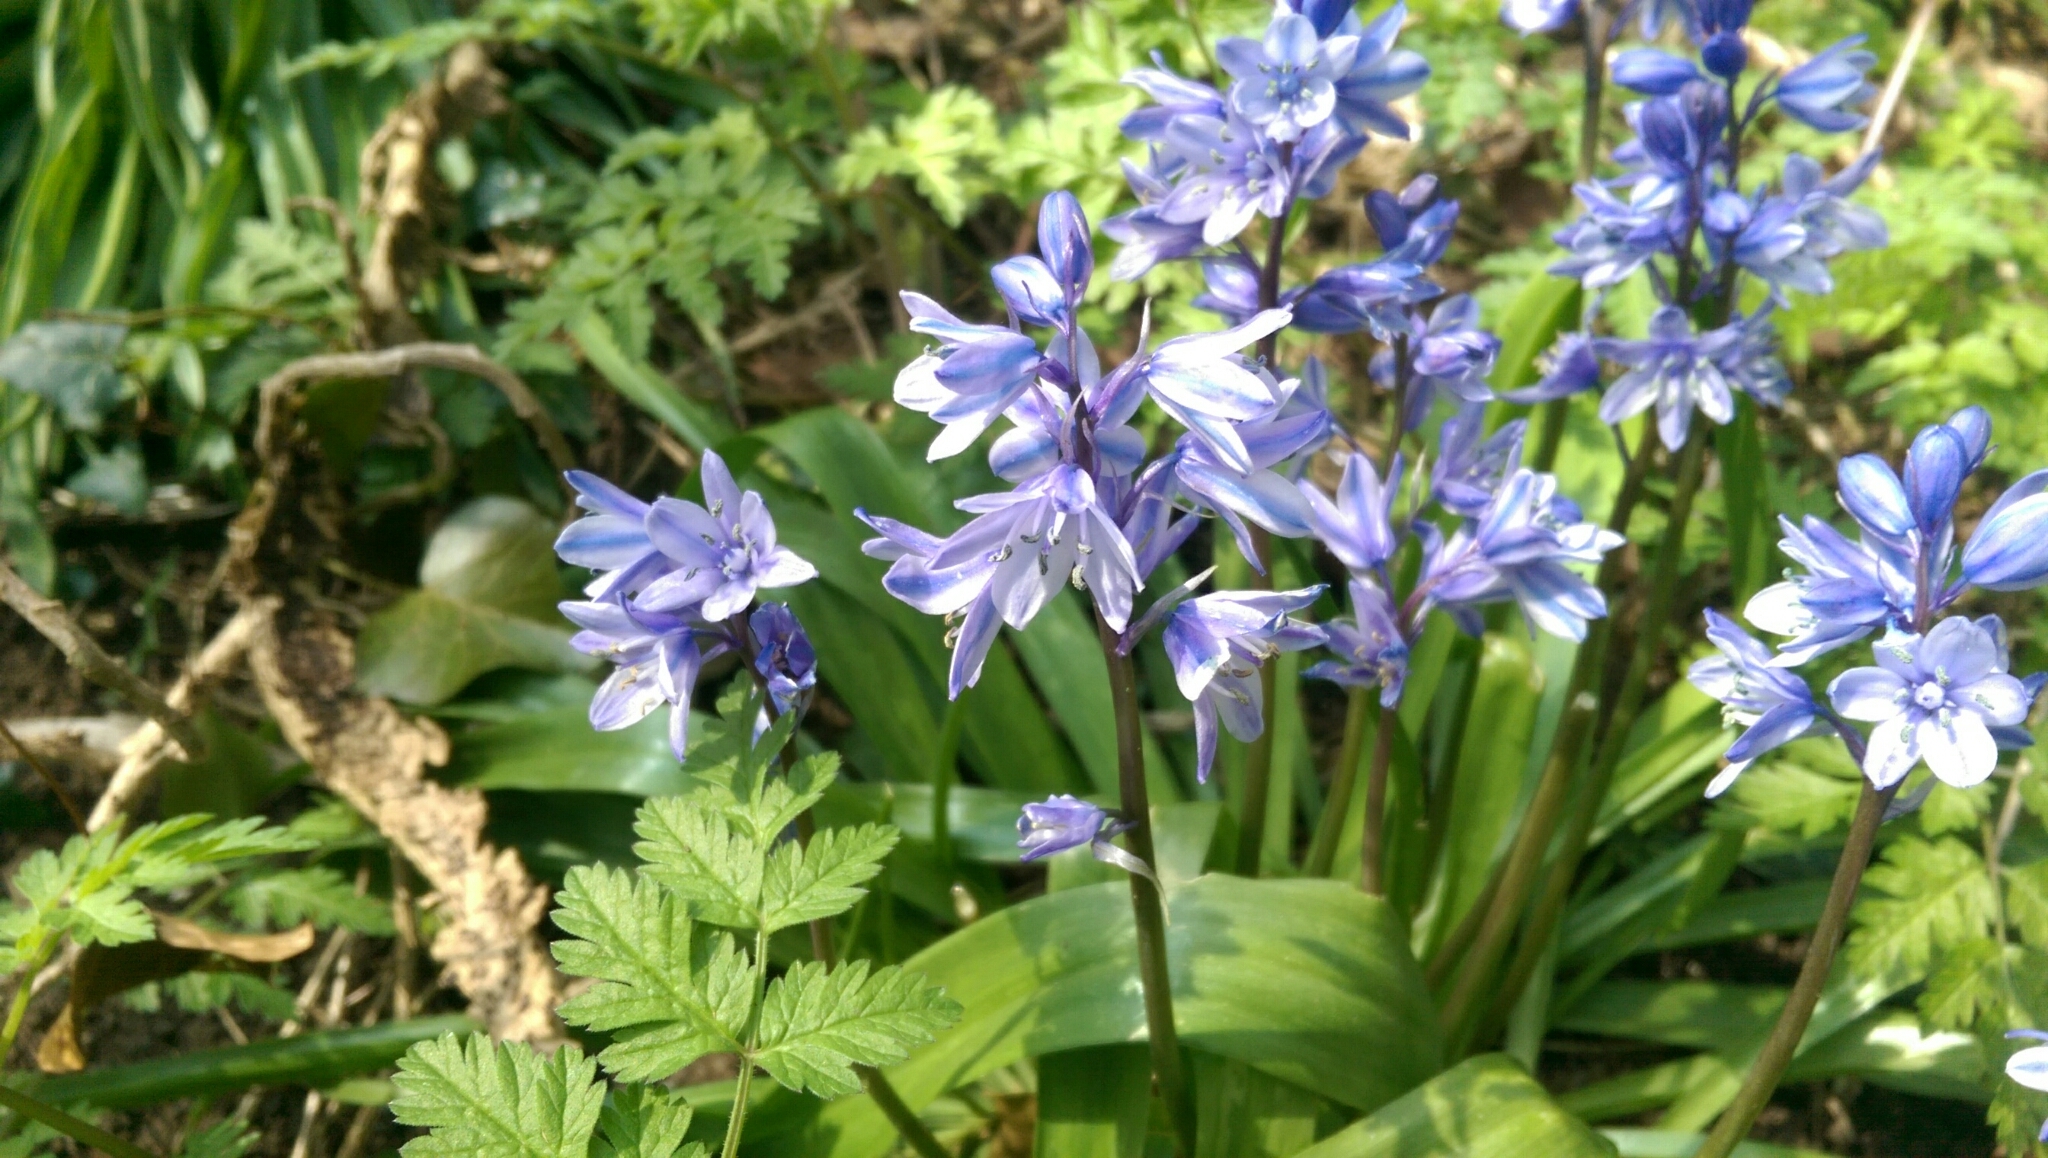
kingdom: Plantae
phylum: Tracheophyta
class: Liliopsida
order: Asparagales
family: Asparagaceae
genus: Hyacinthoides
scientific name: Hyacinthoides hispanica
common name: Spanish bluebell
